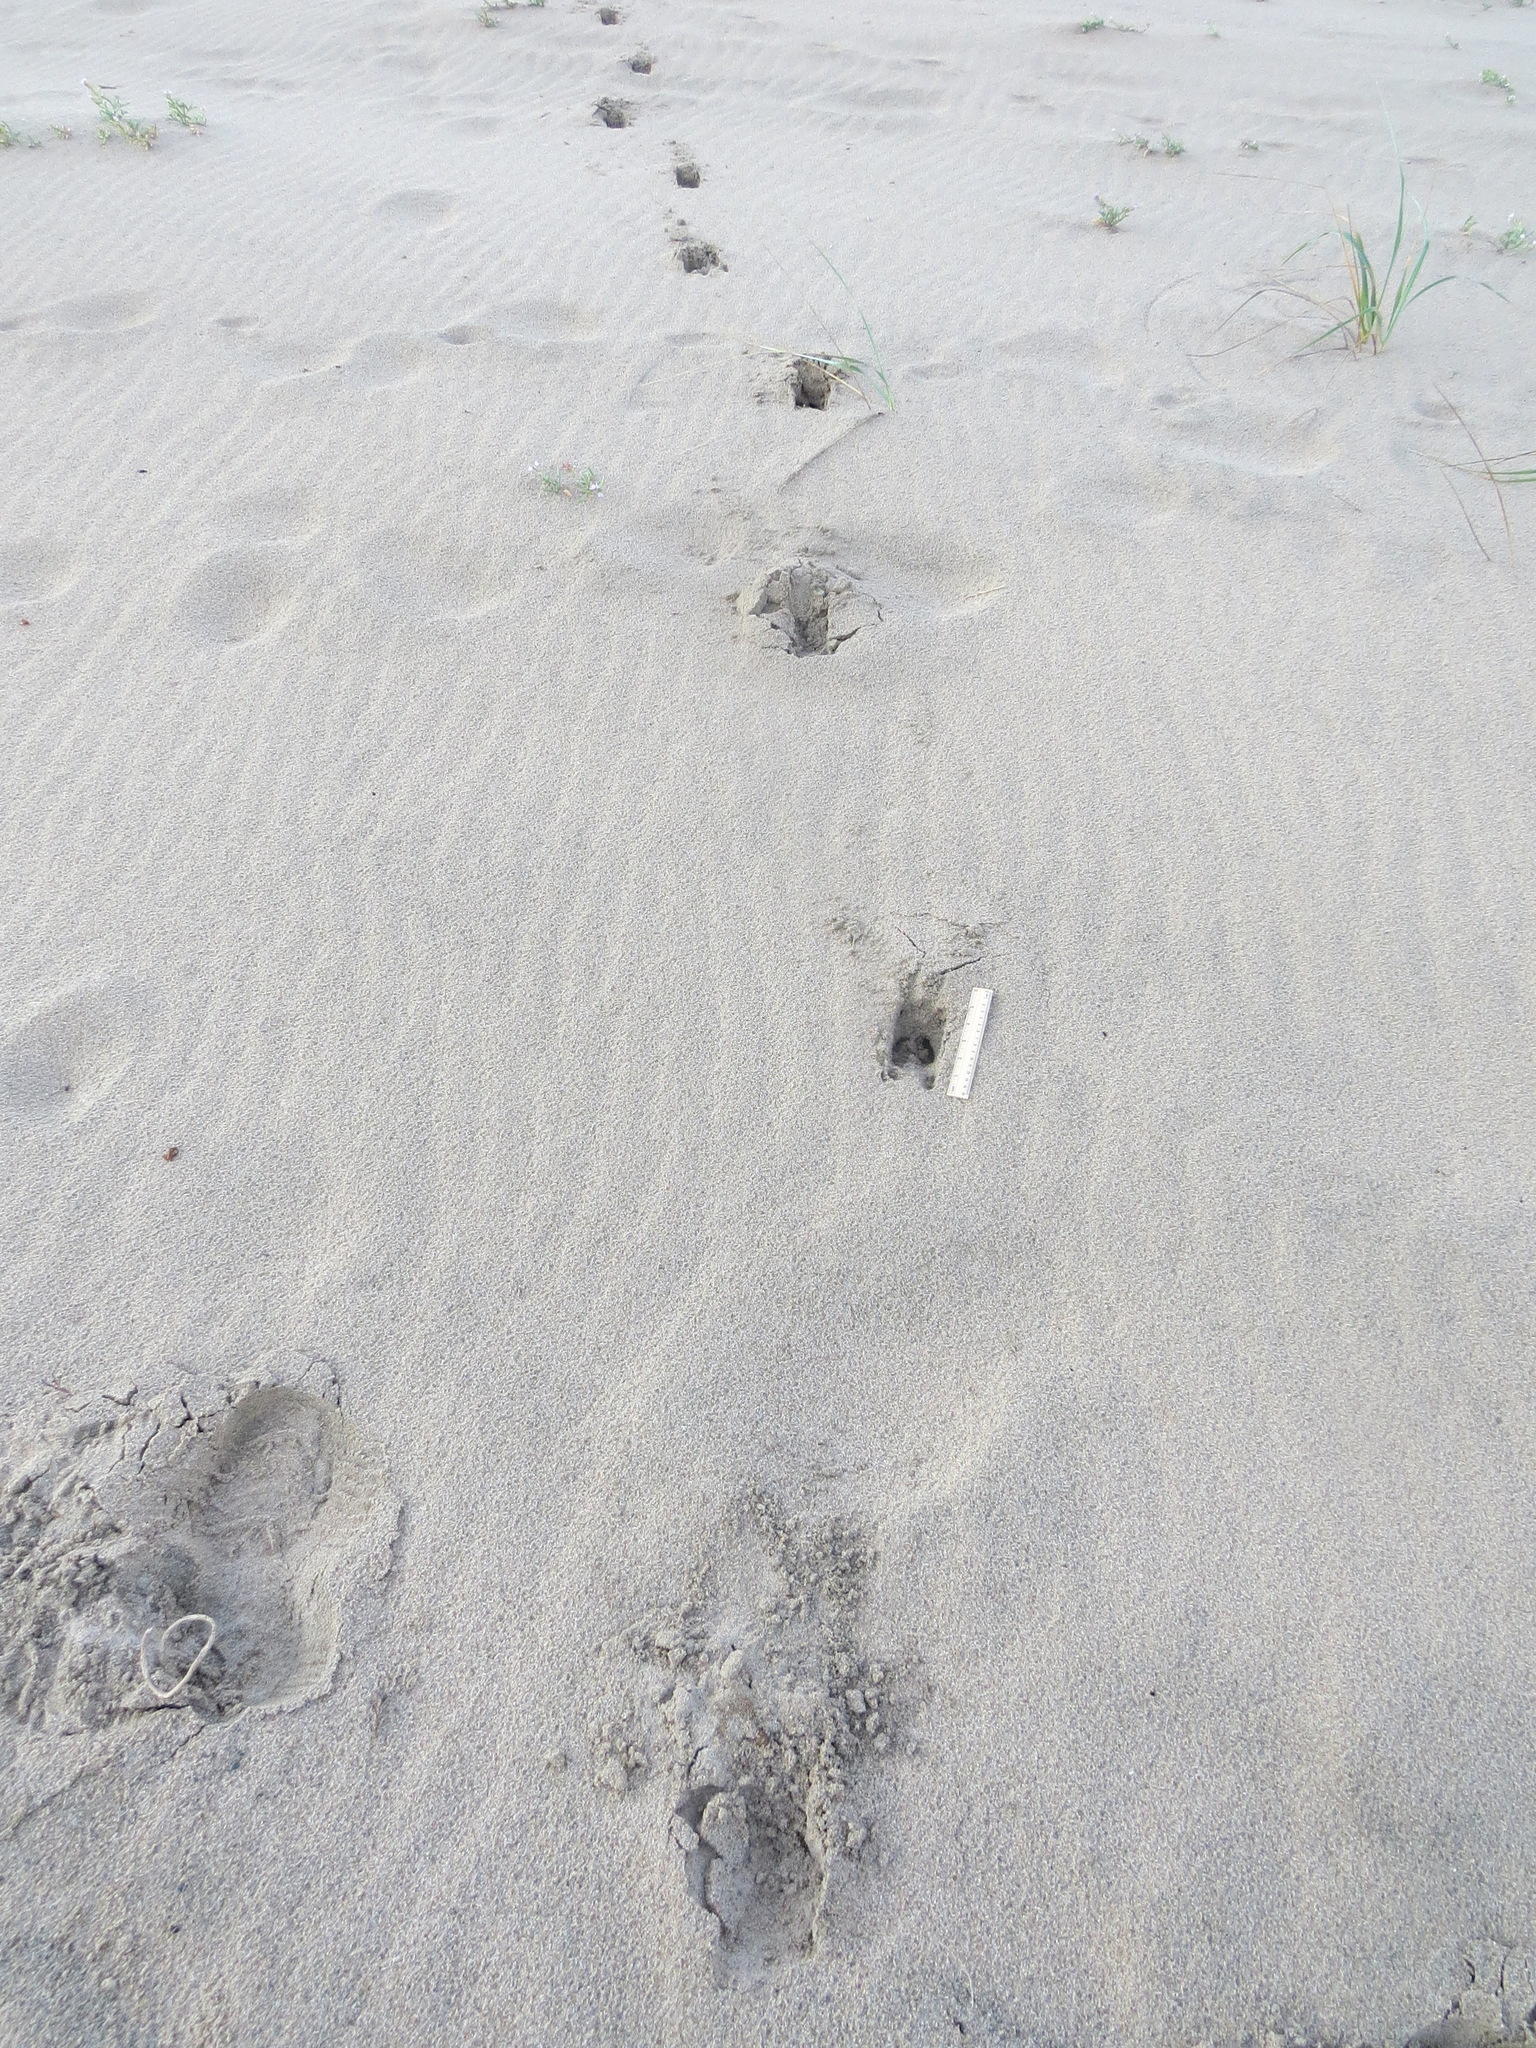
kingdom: Animalia
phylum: Chordata
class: Mammalia
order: Artiodactyla
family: Cervidae
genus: Odocoileus
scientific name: Odocoileus hemionus
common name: Mule deer
